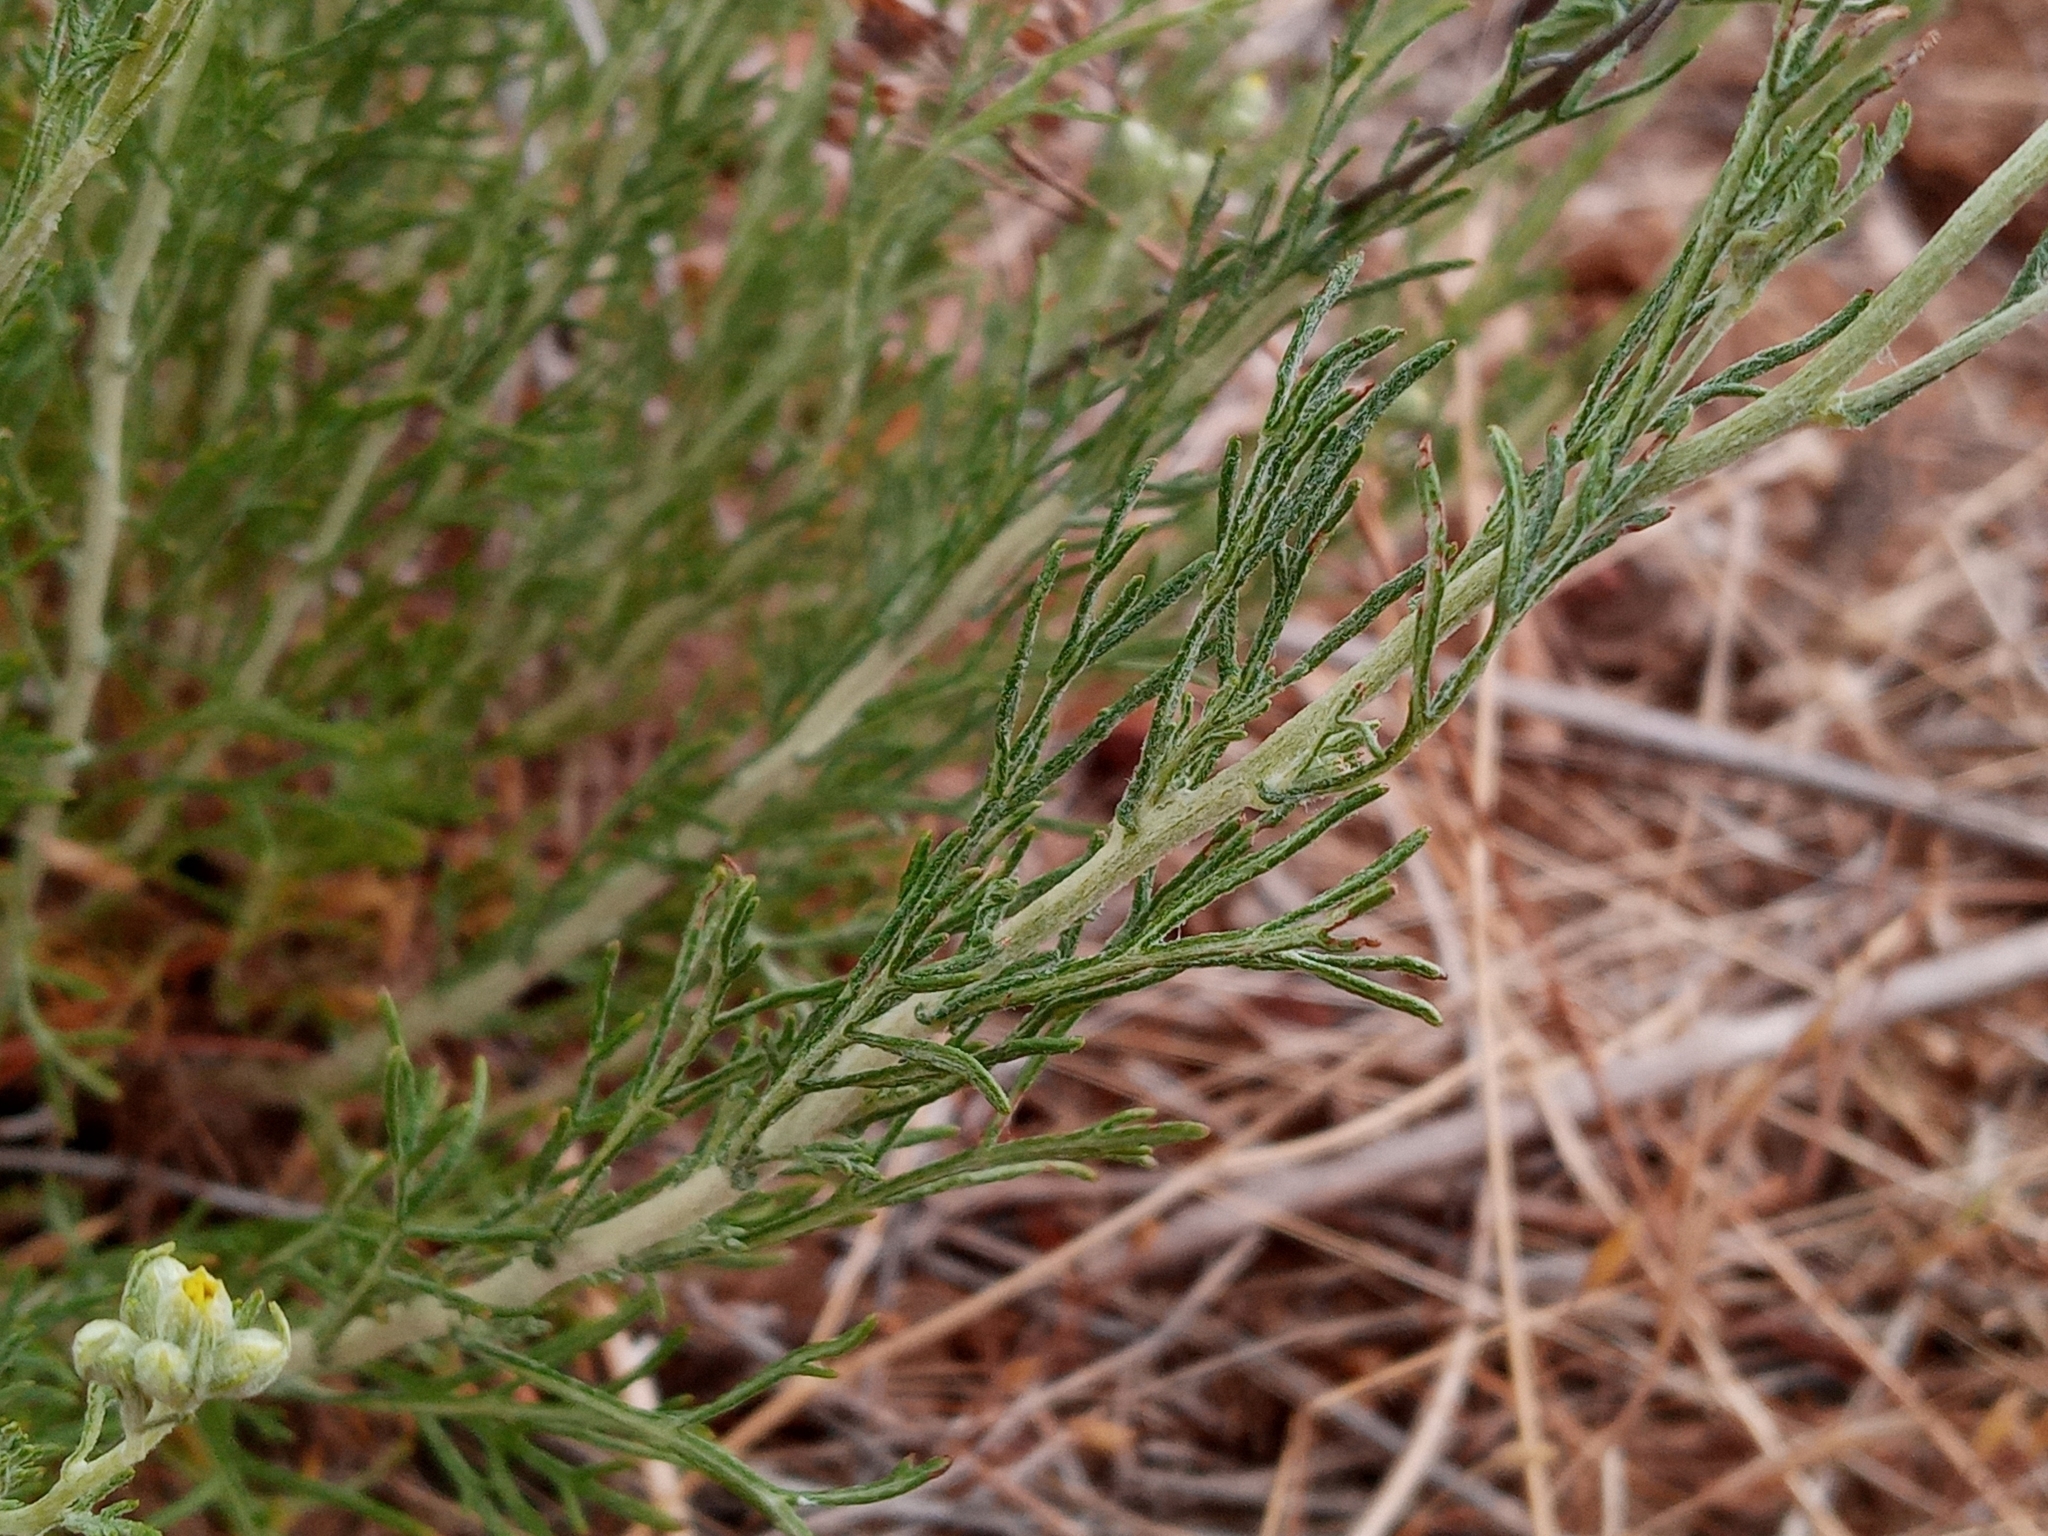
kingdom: Plantae
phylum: Tracheophyta
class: Magnoliopsida
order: Asterales
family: Asteraceae
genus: Eriophyllum
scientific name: Eriophyllum confertiflorum
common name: Golden-yarrow
